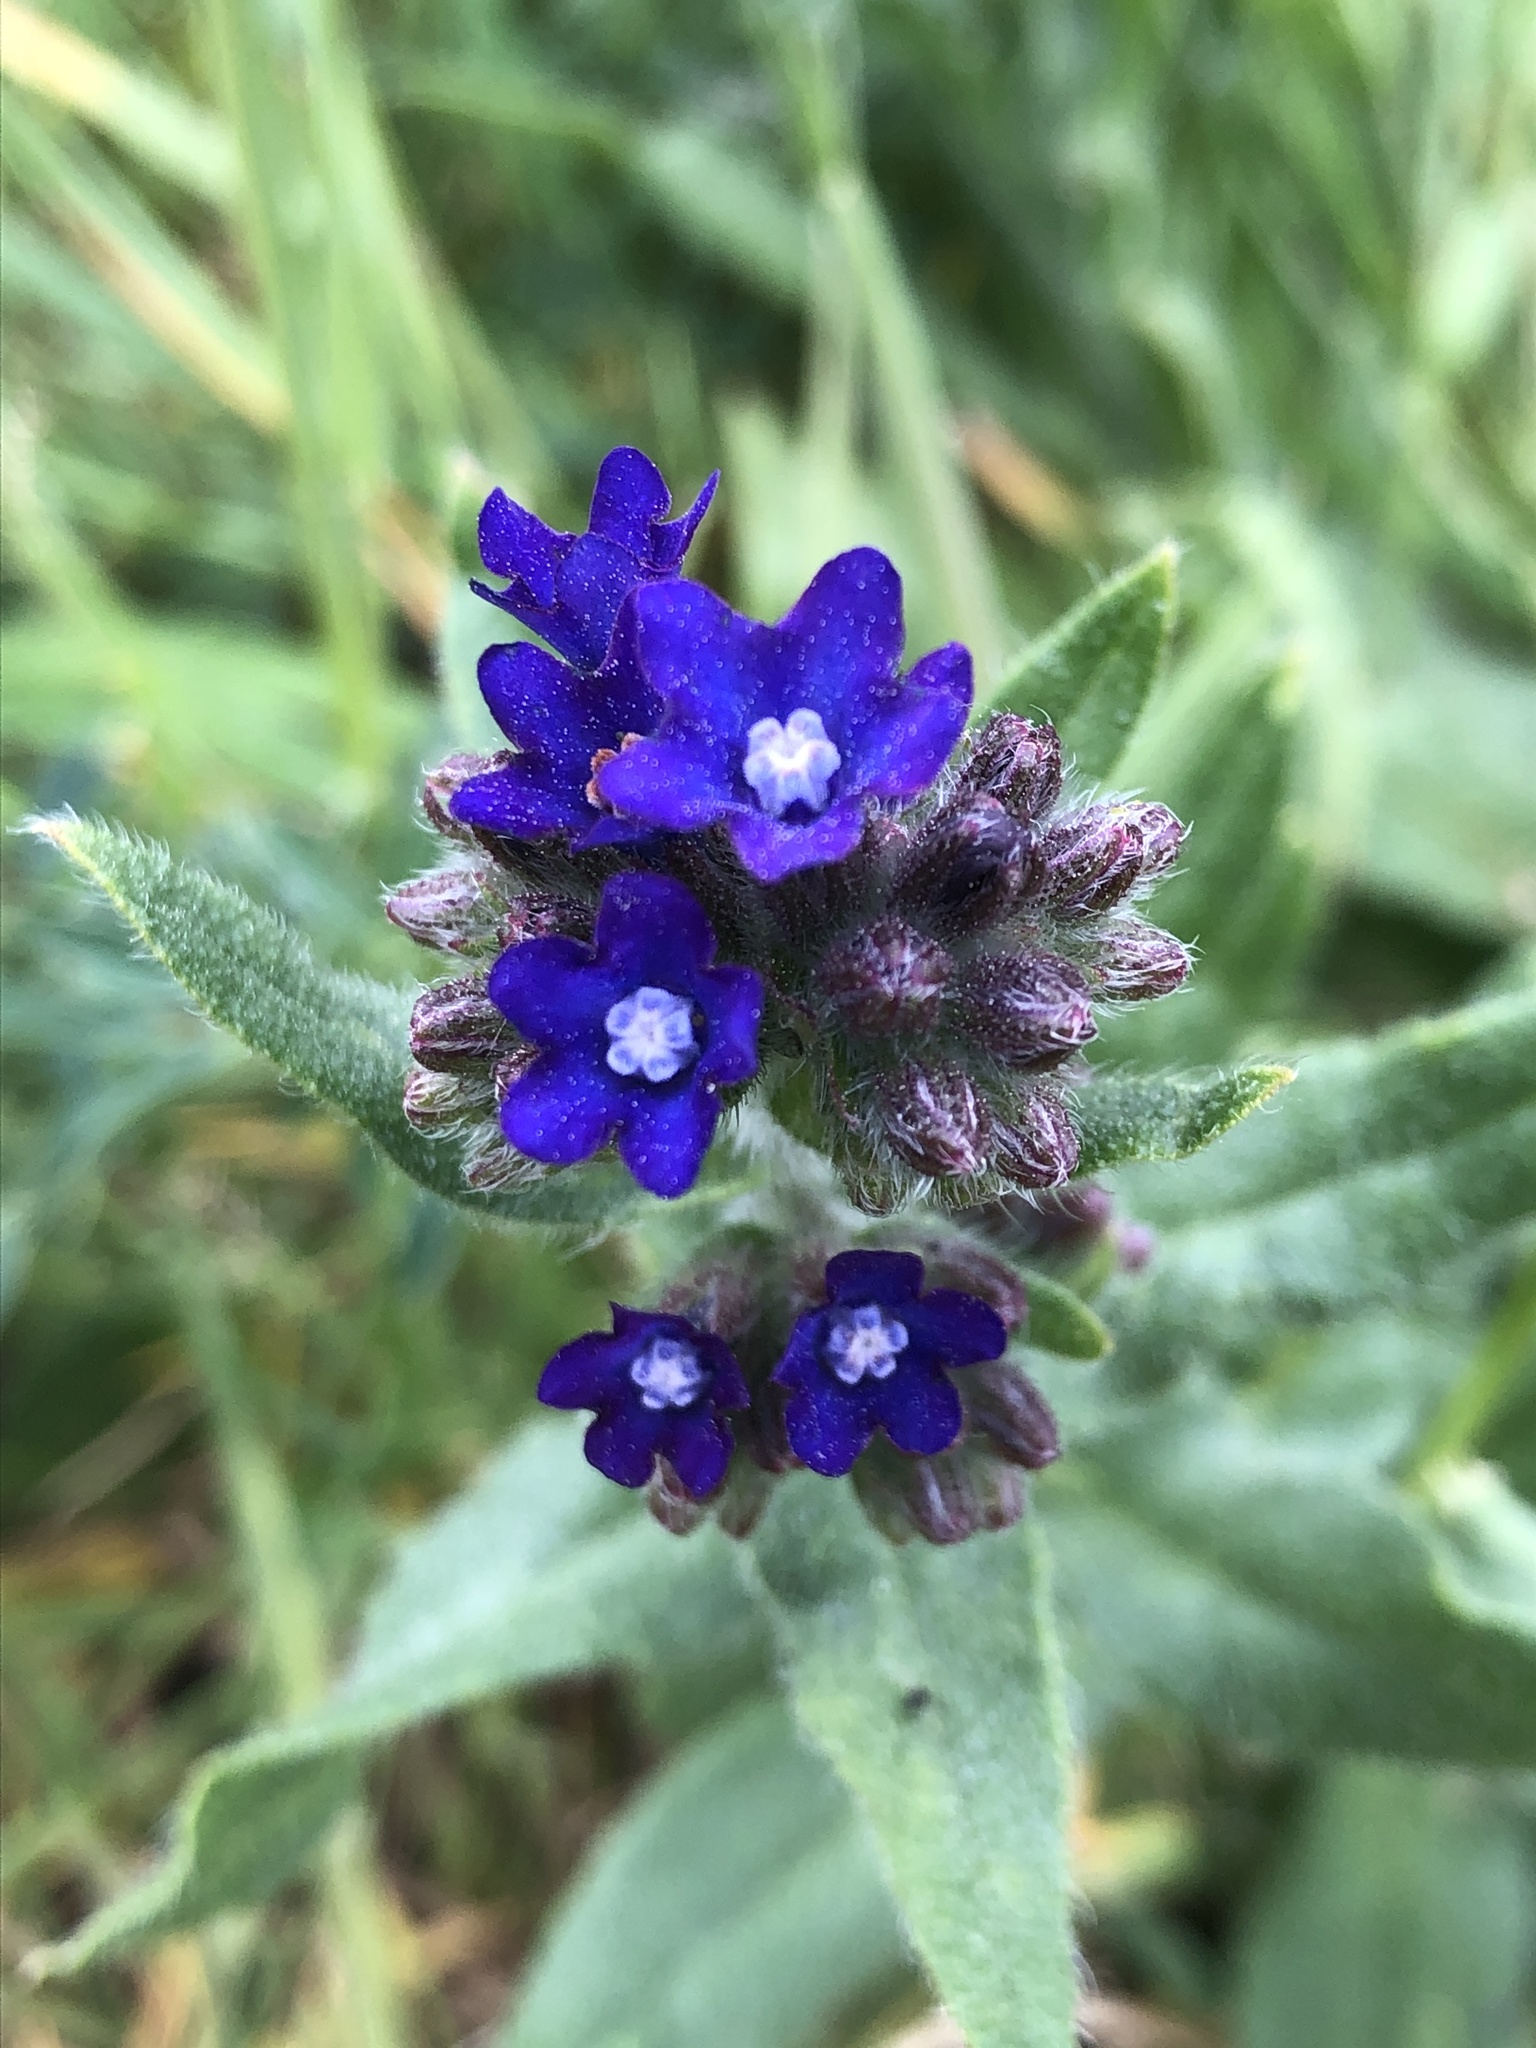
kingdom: Plantae
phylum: Tracheophyta
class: Magnoliopsida
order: Boraginales
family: Boraginaceae
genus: Anchusa
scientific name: Anchusa officinalis
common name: Alkanet
